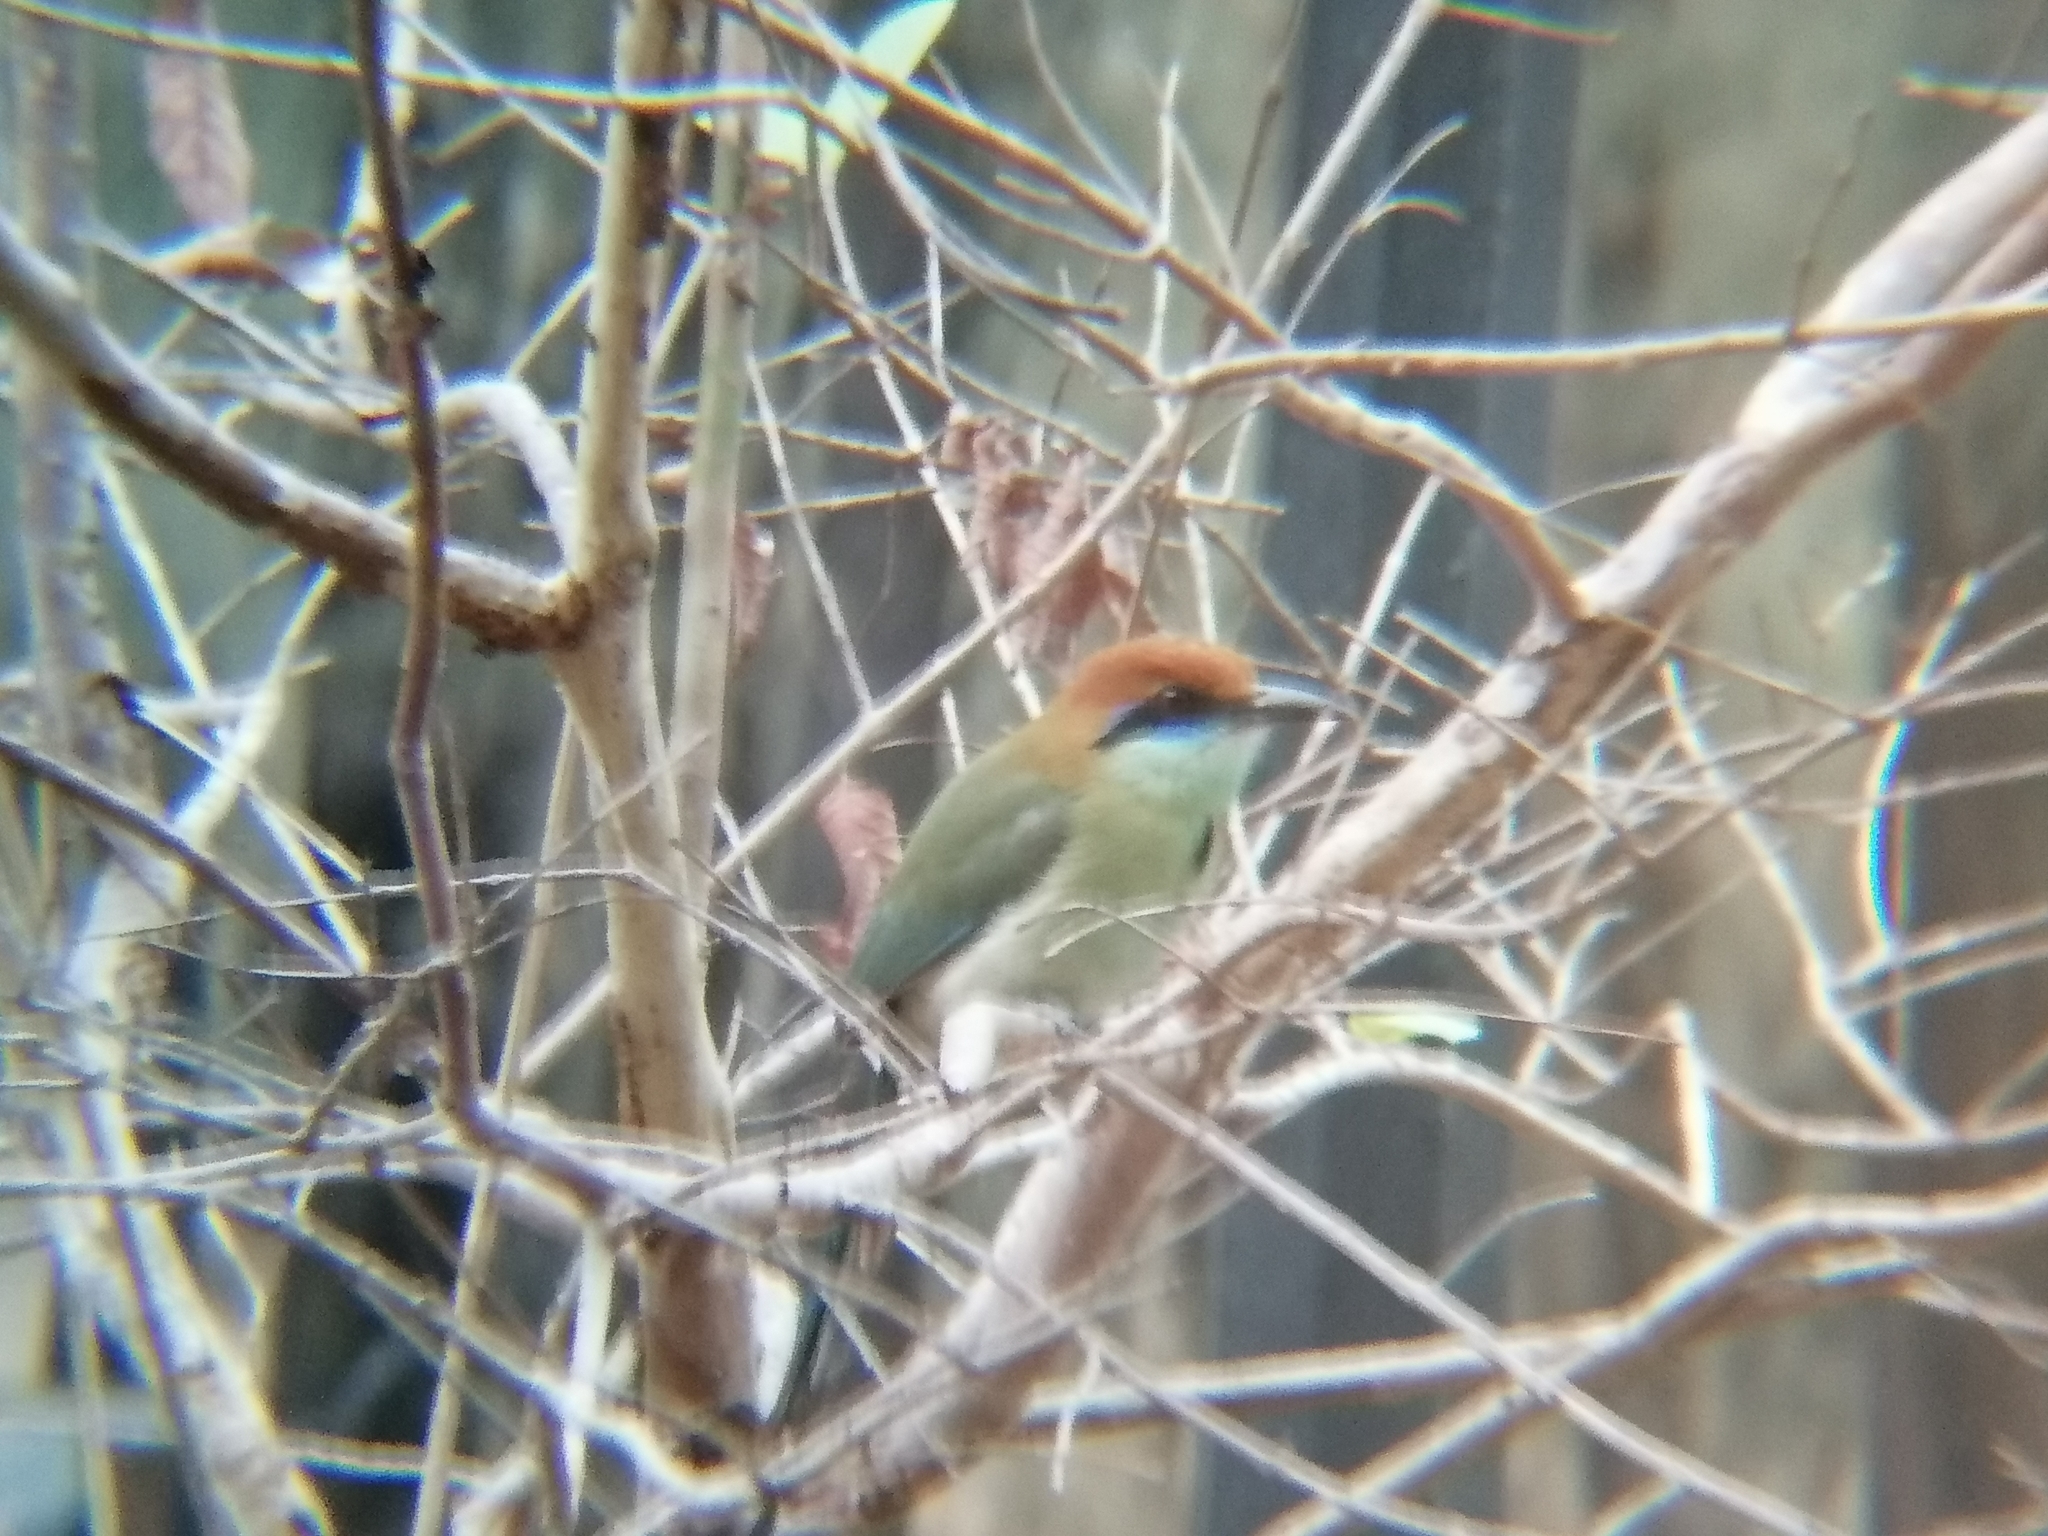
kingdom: Animalia
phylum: Chordata
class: Aves
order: Coraciiformes
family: Momotidae
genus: Momotus
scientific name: Momotus mexicanus
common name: Russet-crowned motmot
